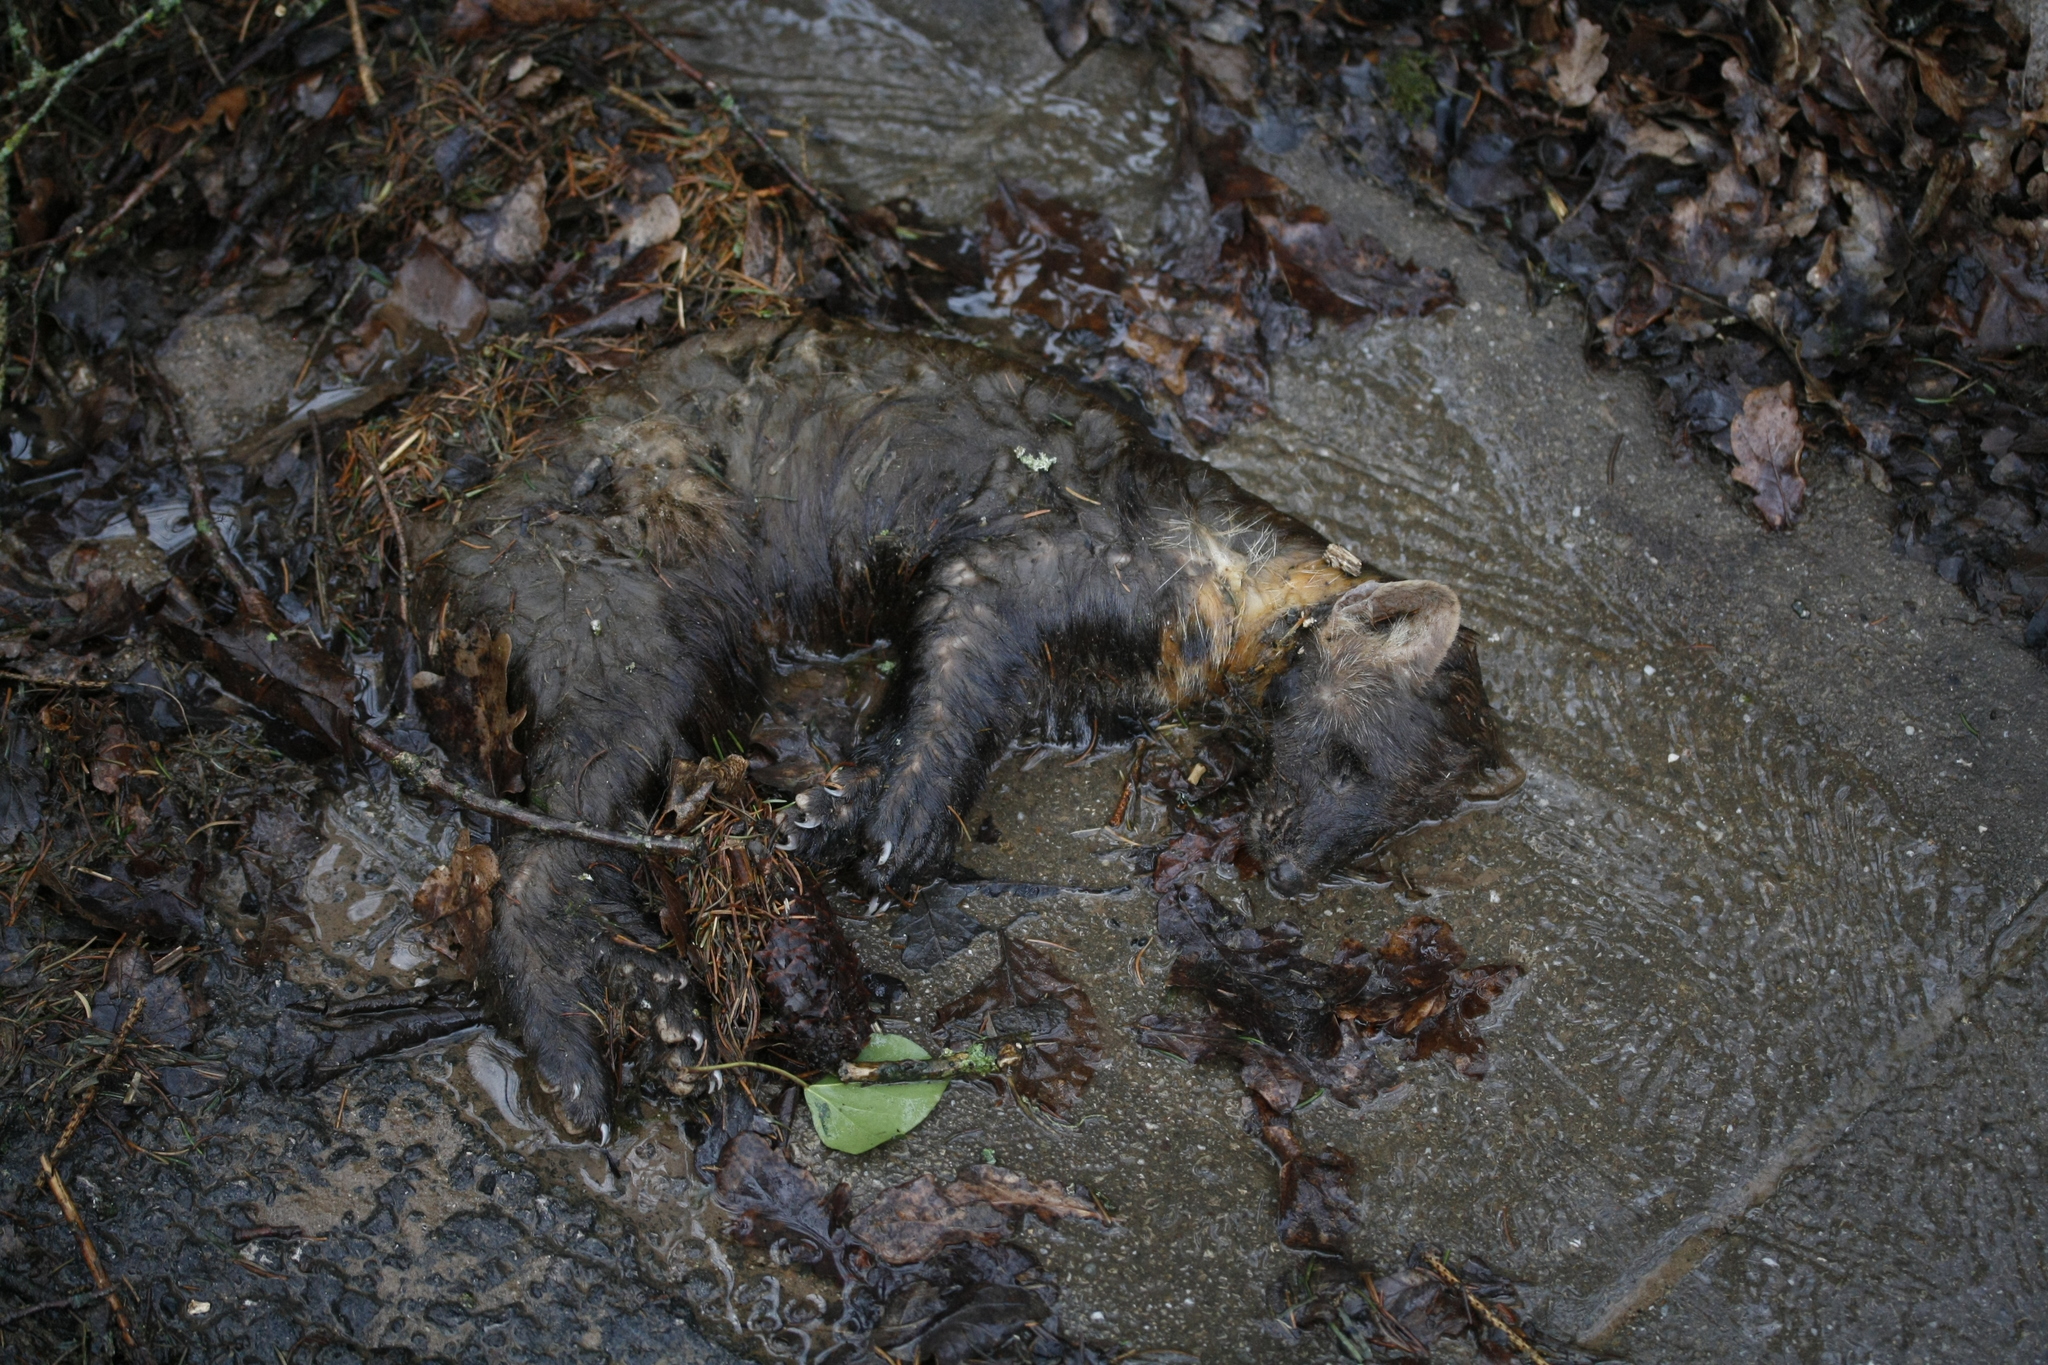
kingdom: Animalia
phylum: Chordata
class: Mammalia
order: Carnivora
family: Mustelidae
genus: Martes
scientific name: Martes martes
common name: European pine marten
